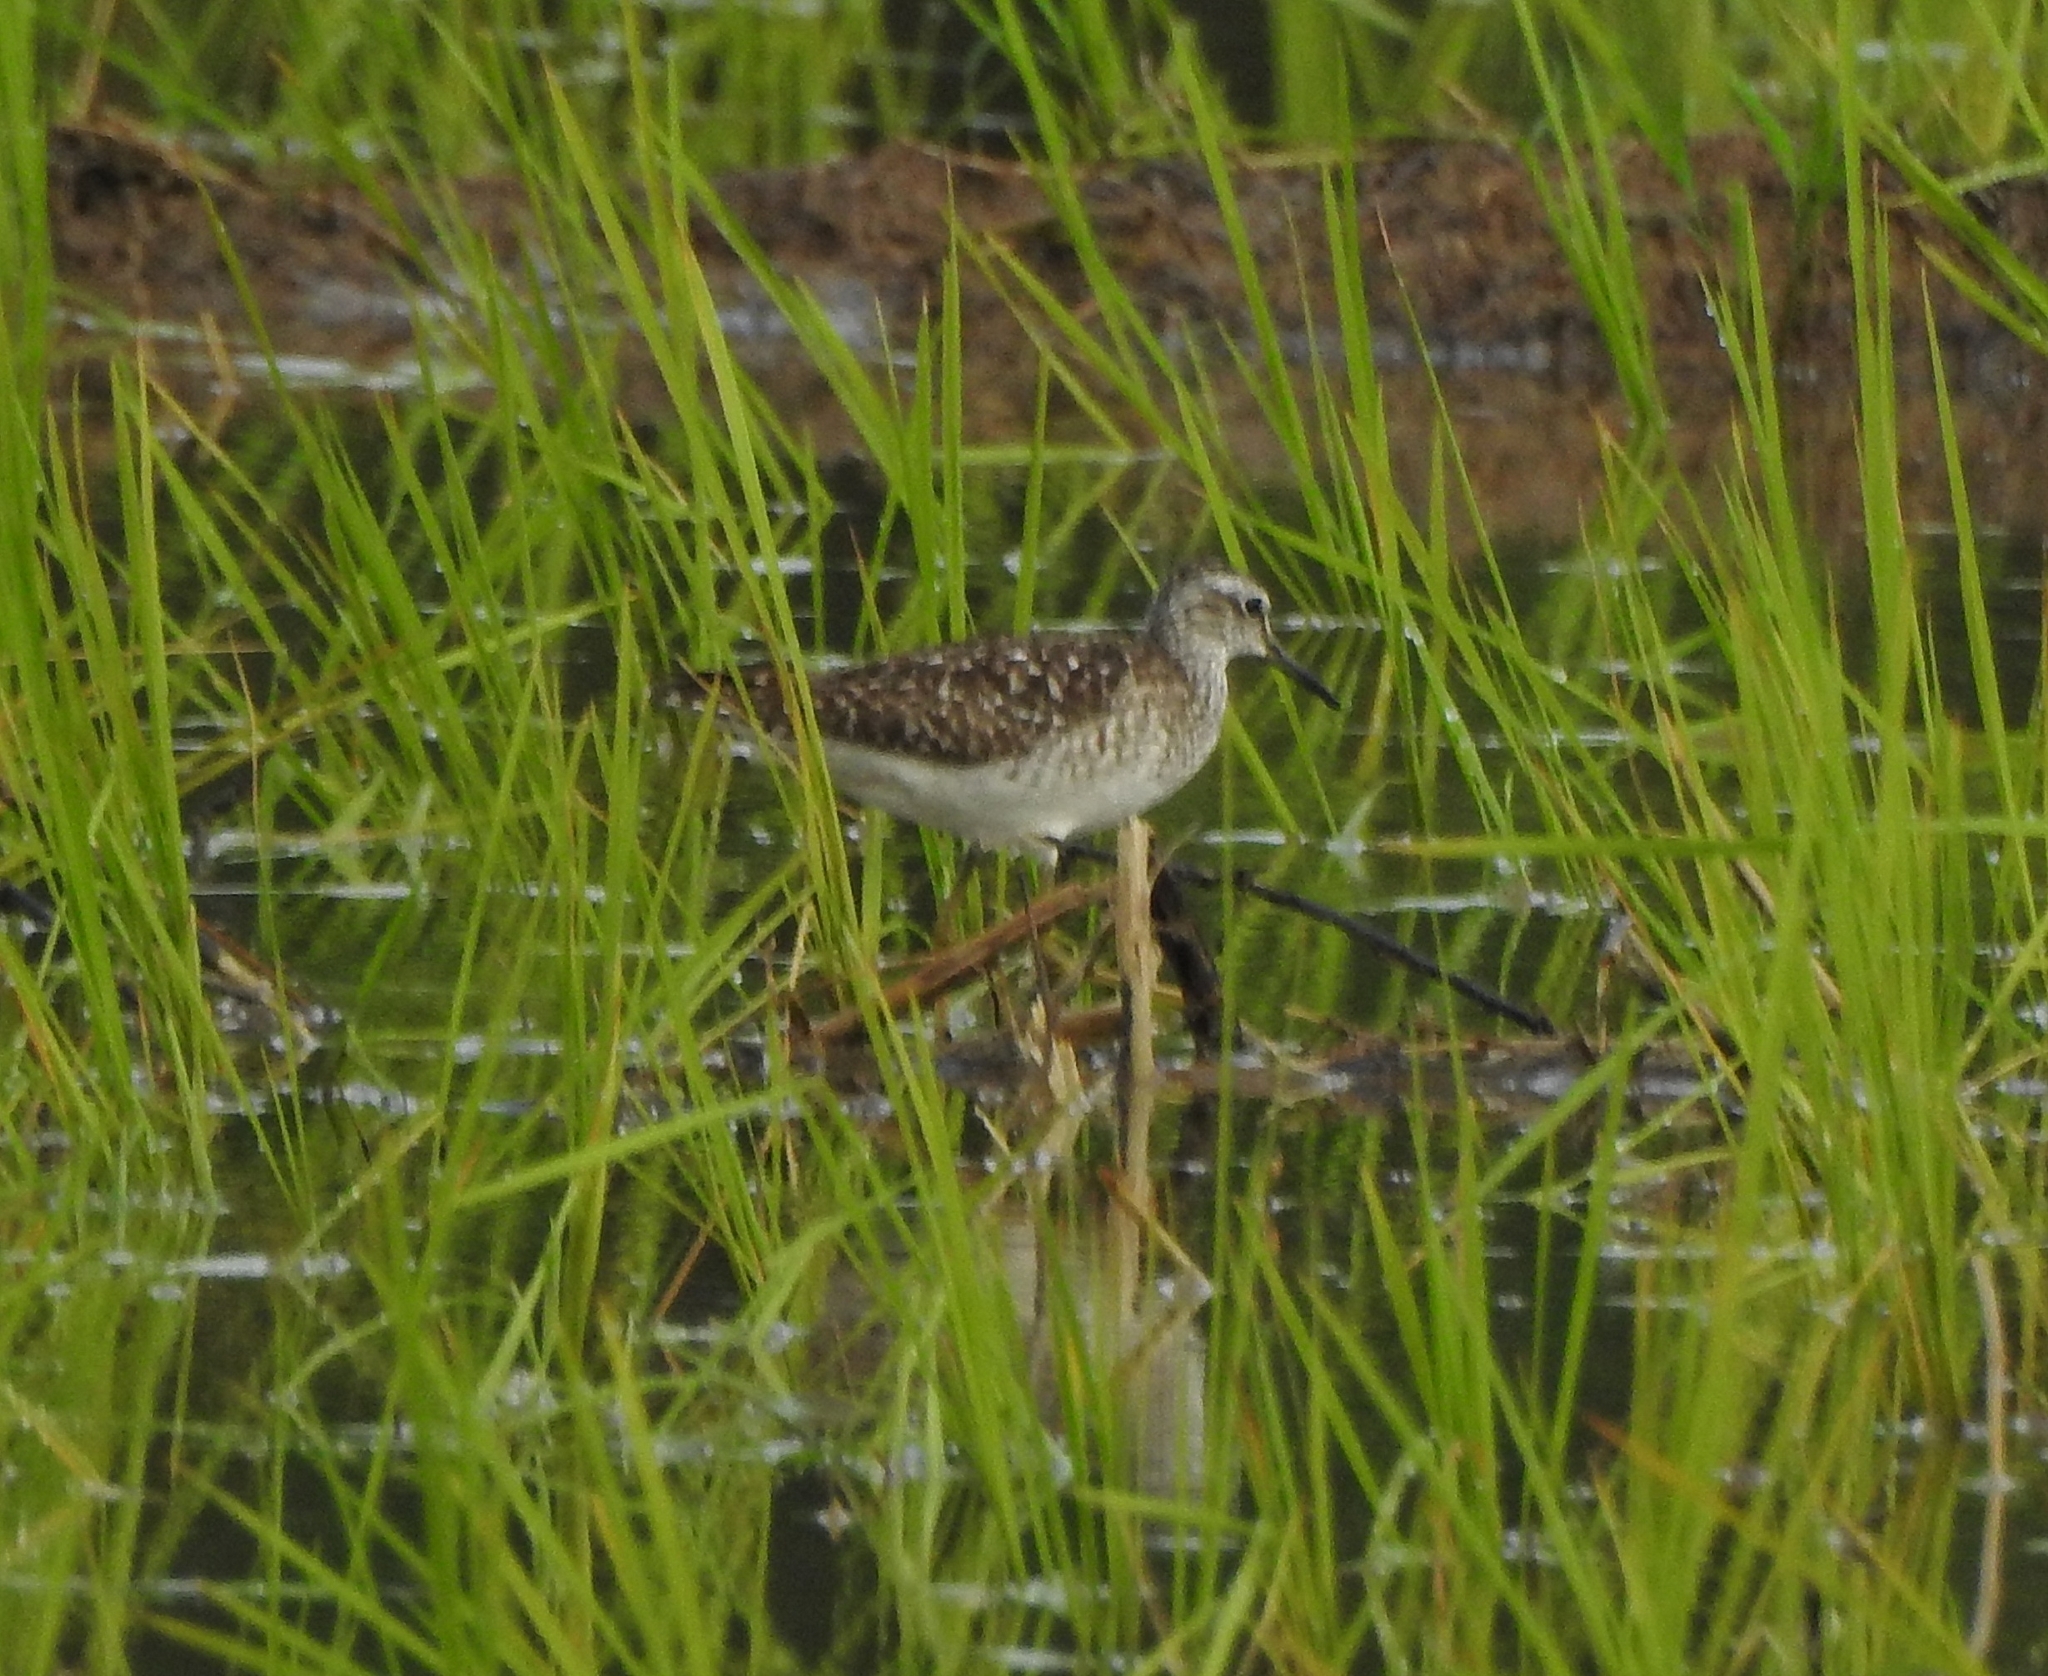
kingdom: Animalia
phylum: Chordata
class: Aves
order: Charadriiformes
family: Scolopacidae
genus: Tringa
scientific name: Tringa glareola
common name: Wood sandpiper
